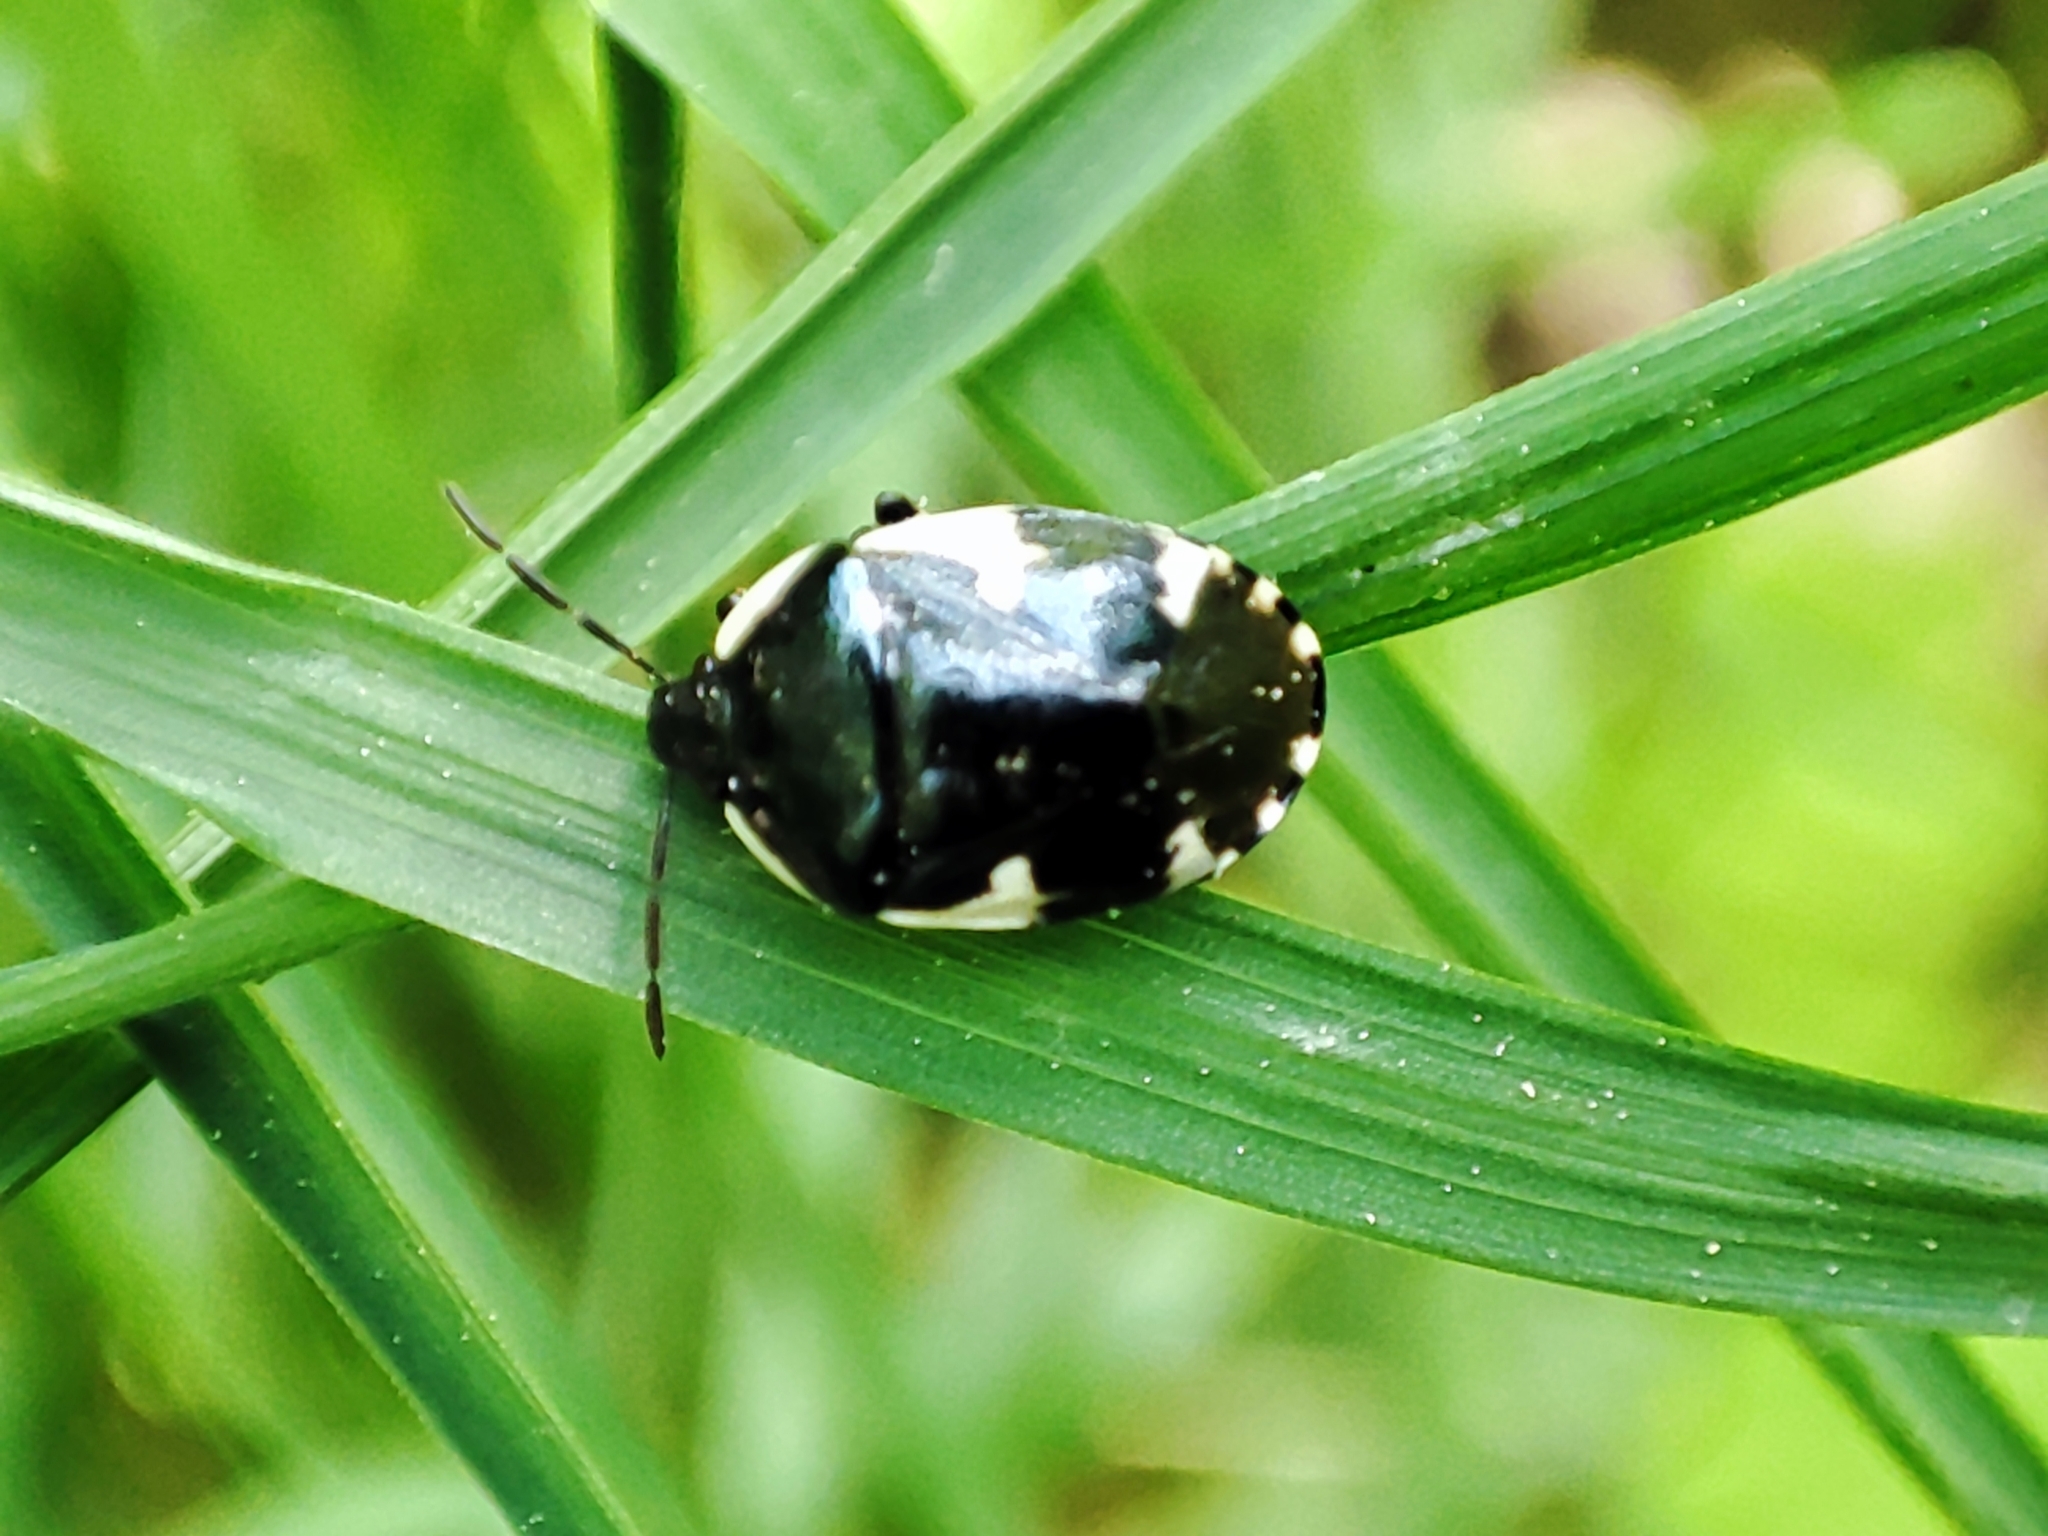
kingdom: Animalia
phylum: Arthropoda
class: Insecta
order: Hemiptera
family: Cydnidae
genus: Tritomegas
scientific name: Tritomegas sexmaculatus
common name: Rambur's pied shieldbug
